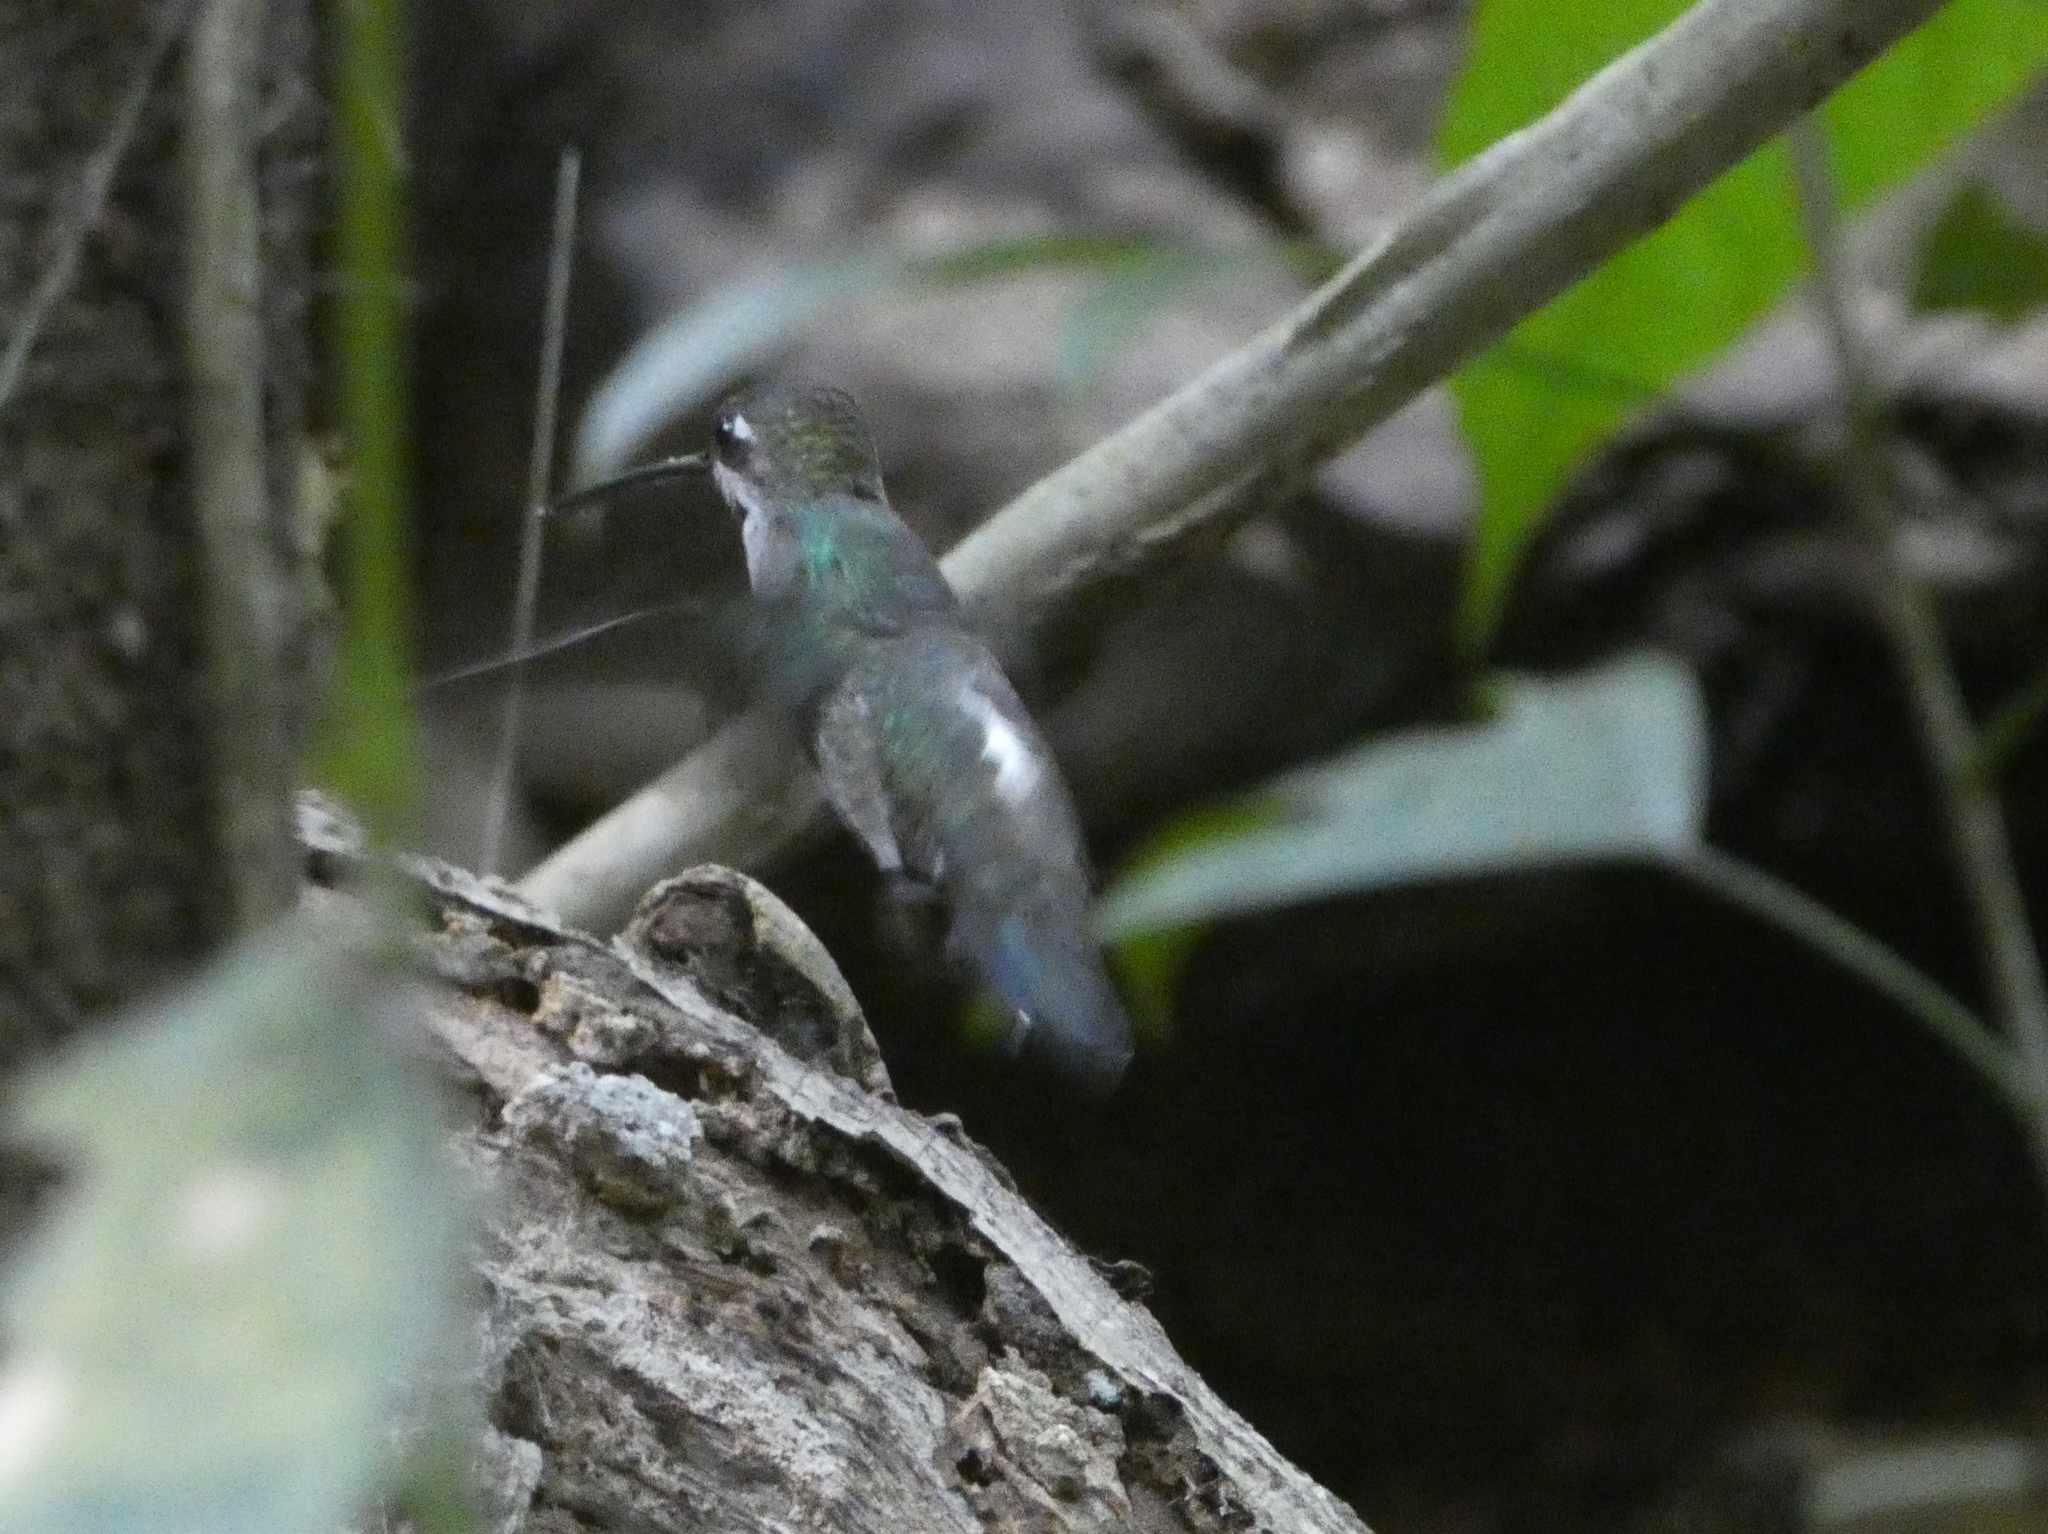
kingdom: Animalia
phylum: Chordata
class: Aves
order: Apodiformes
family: Trochilidae
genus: Heliomaster
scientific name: Heliomaster longirostris
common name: Long-billed starthroat
